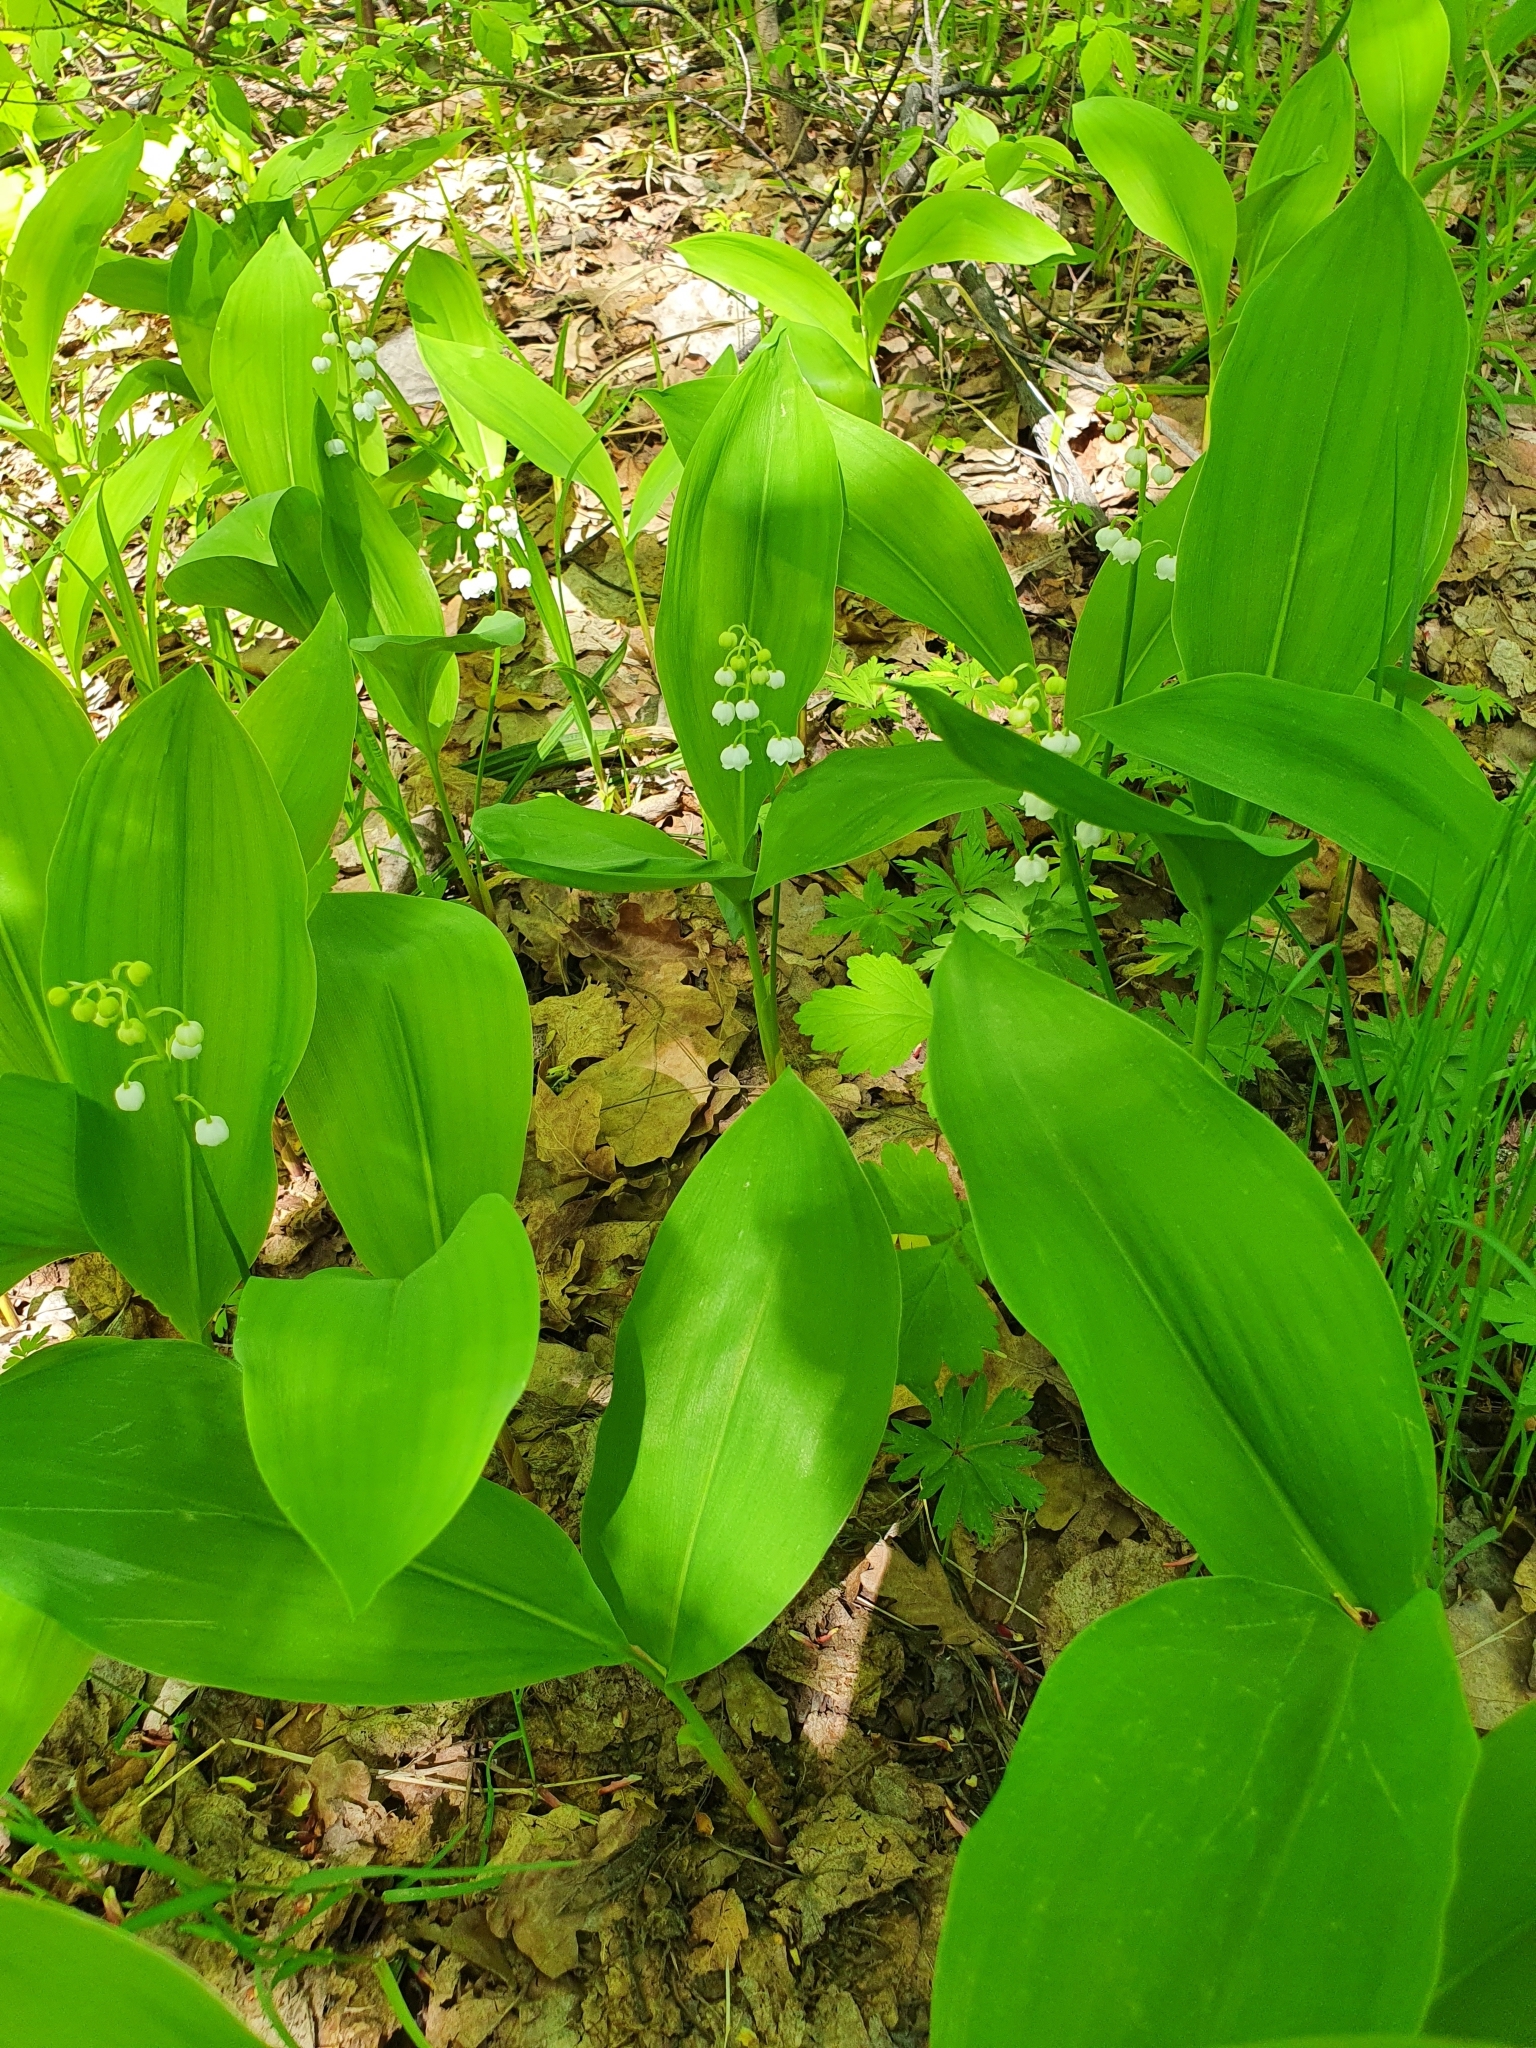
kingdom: Plantae
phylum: Tracheophyta
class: Liliopsida
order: Asparagales
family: Asparagaceae
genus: Convallaria
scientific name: Convallaria majalis
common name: Lily-of-the-valley
